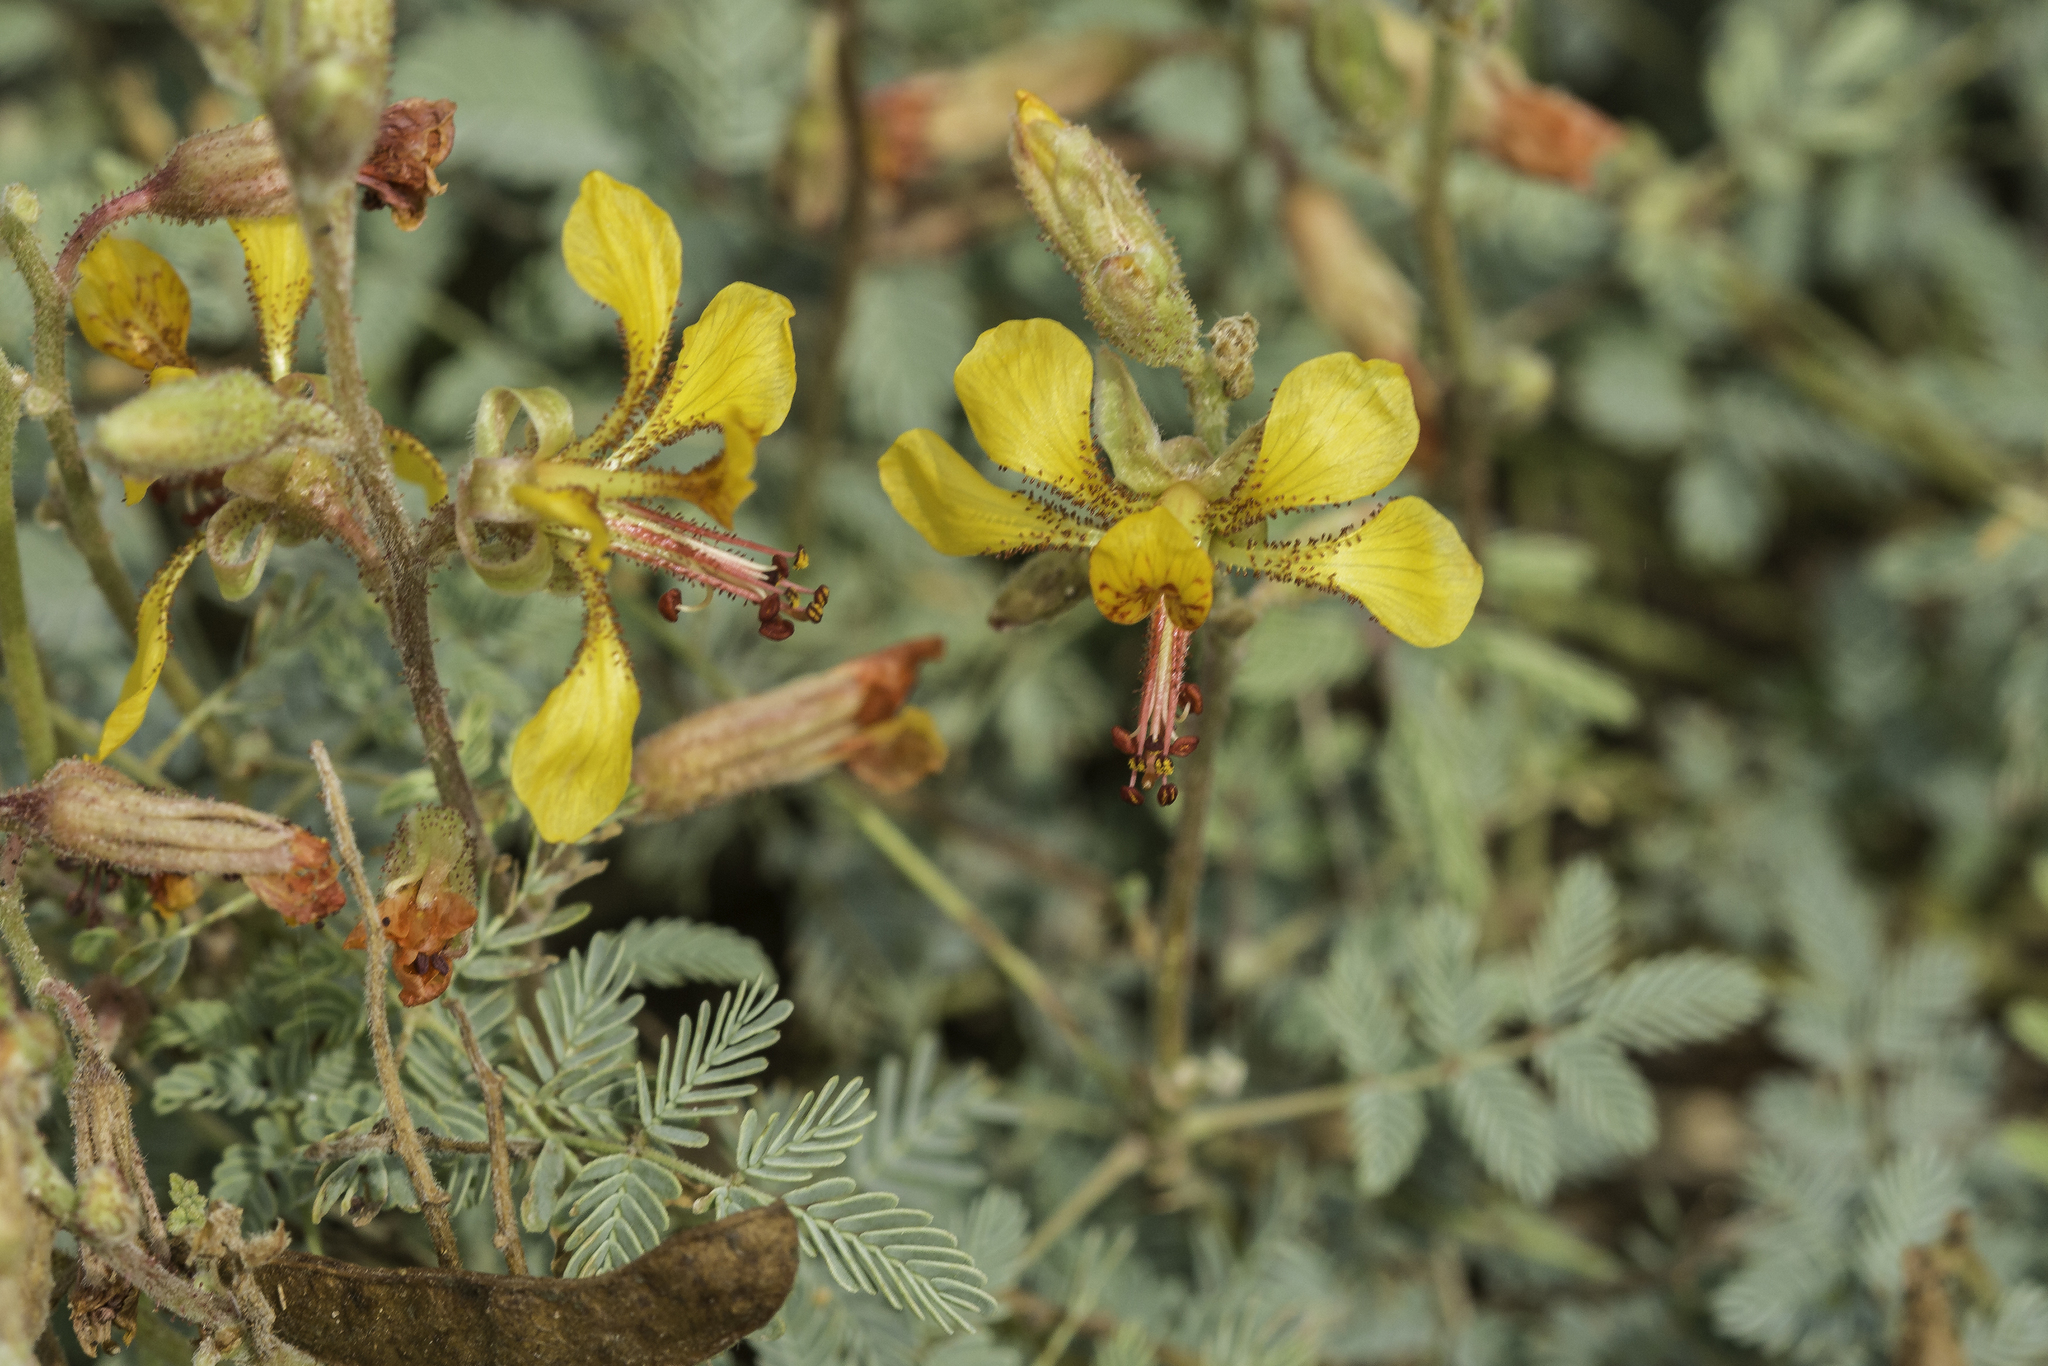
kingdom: Plantae
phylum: Tracheophyta
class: Magnoliopsida
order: Fabales
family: Fabaceae
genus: Hoffmannseggia
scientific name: Hoffmannseggia glauca
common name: Pignut
